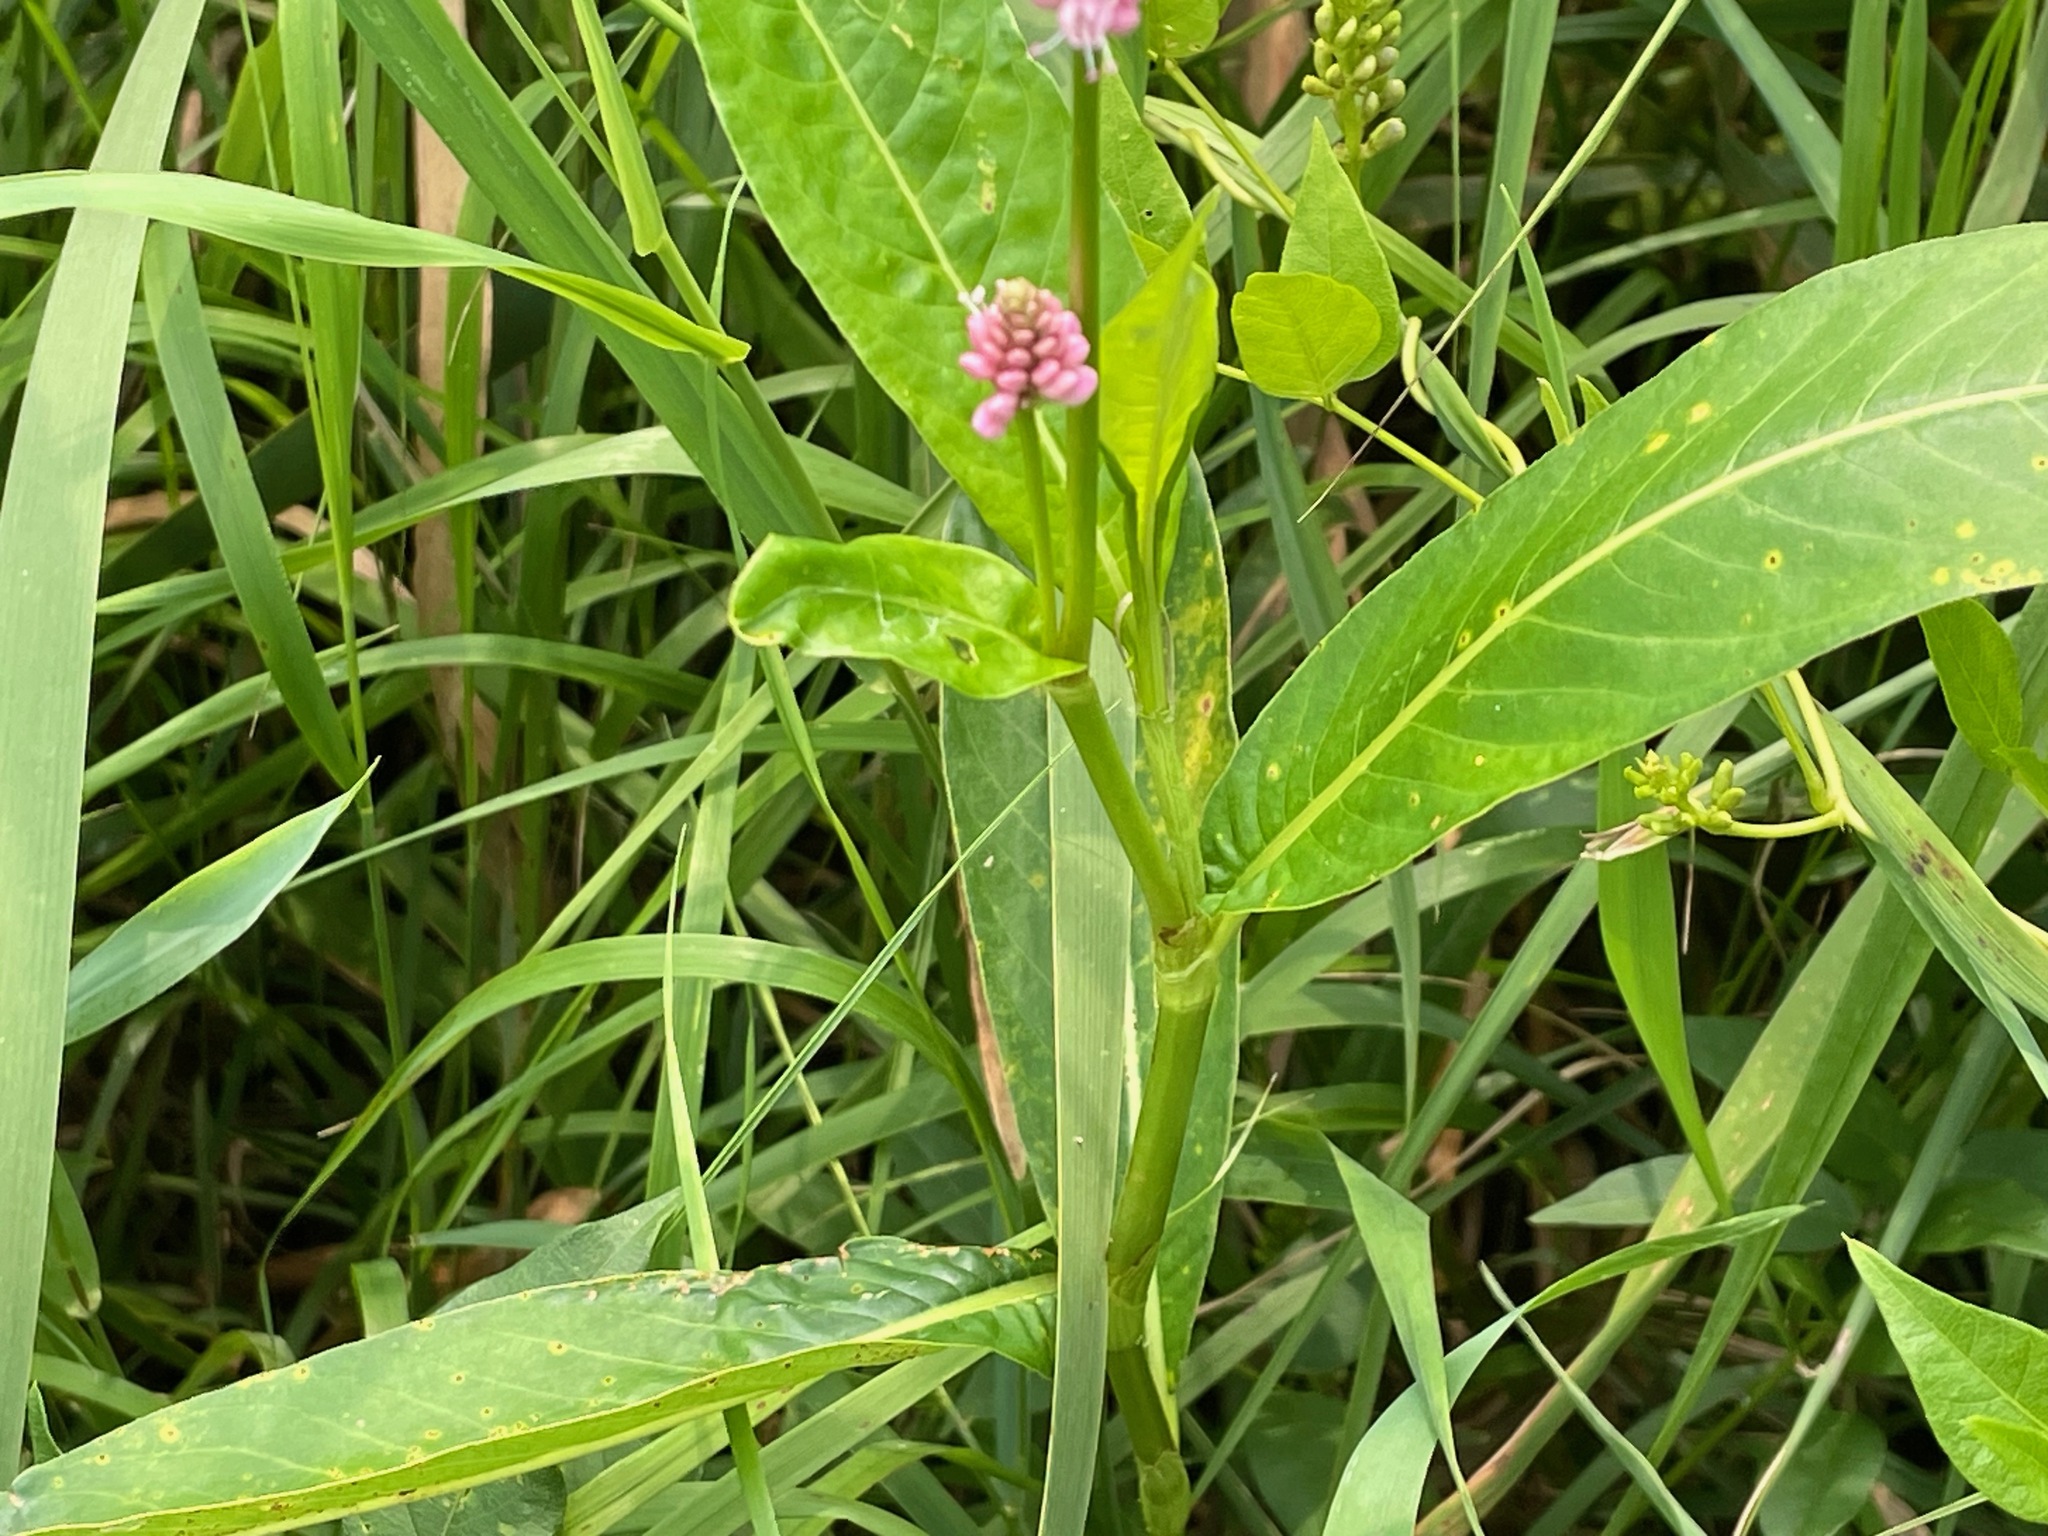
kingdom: Plantae
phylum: Tracheophyta
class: Magnoliopsida
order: Caryophyllales
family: Polygonaceae
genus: Persicaria
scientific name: Persicaria amphibia
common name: Amphibious bistort
